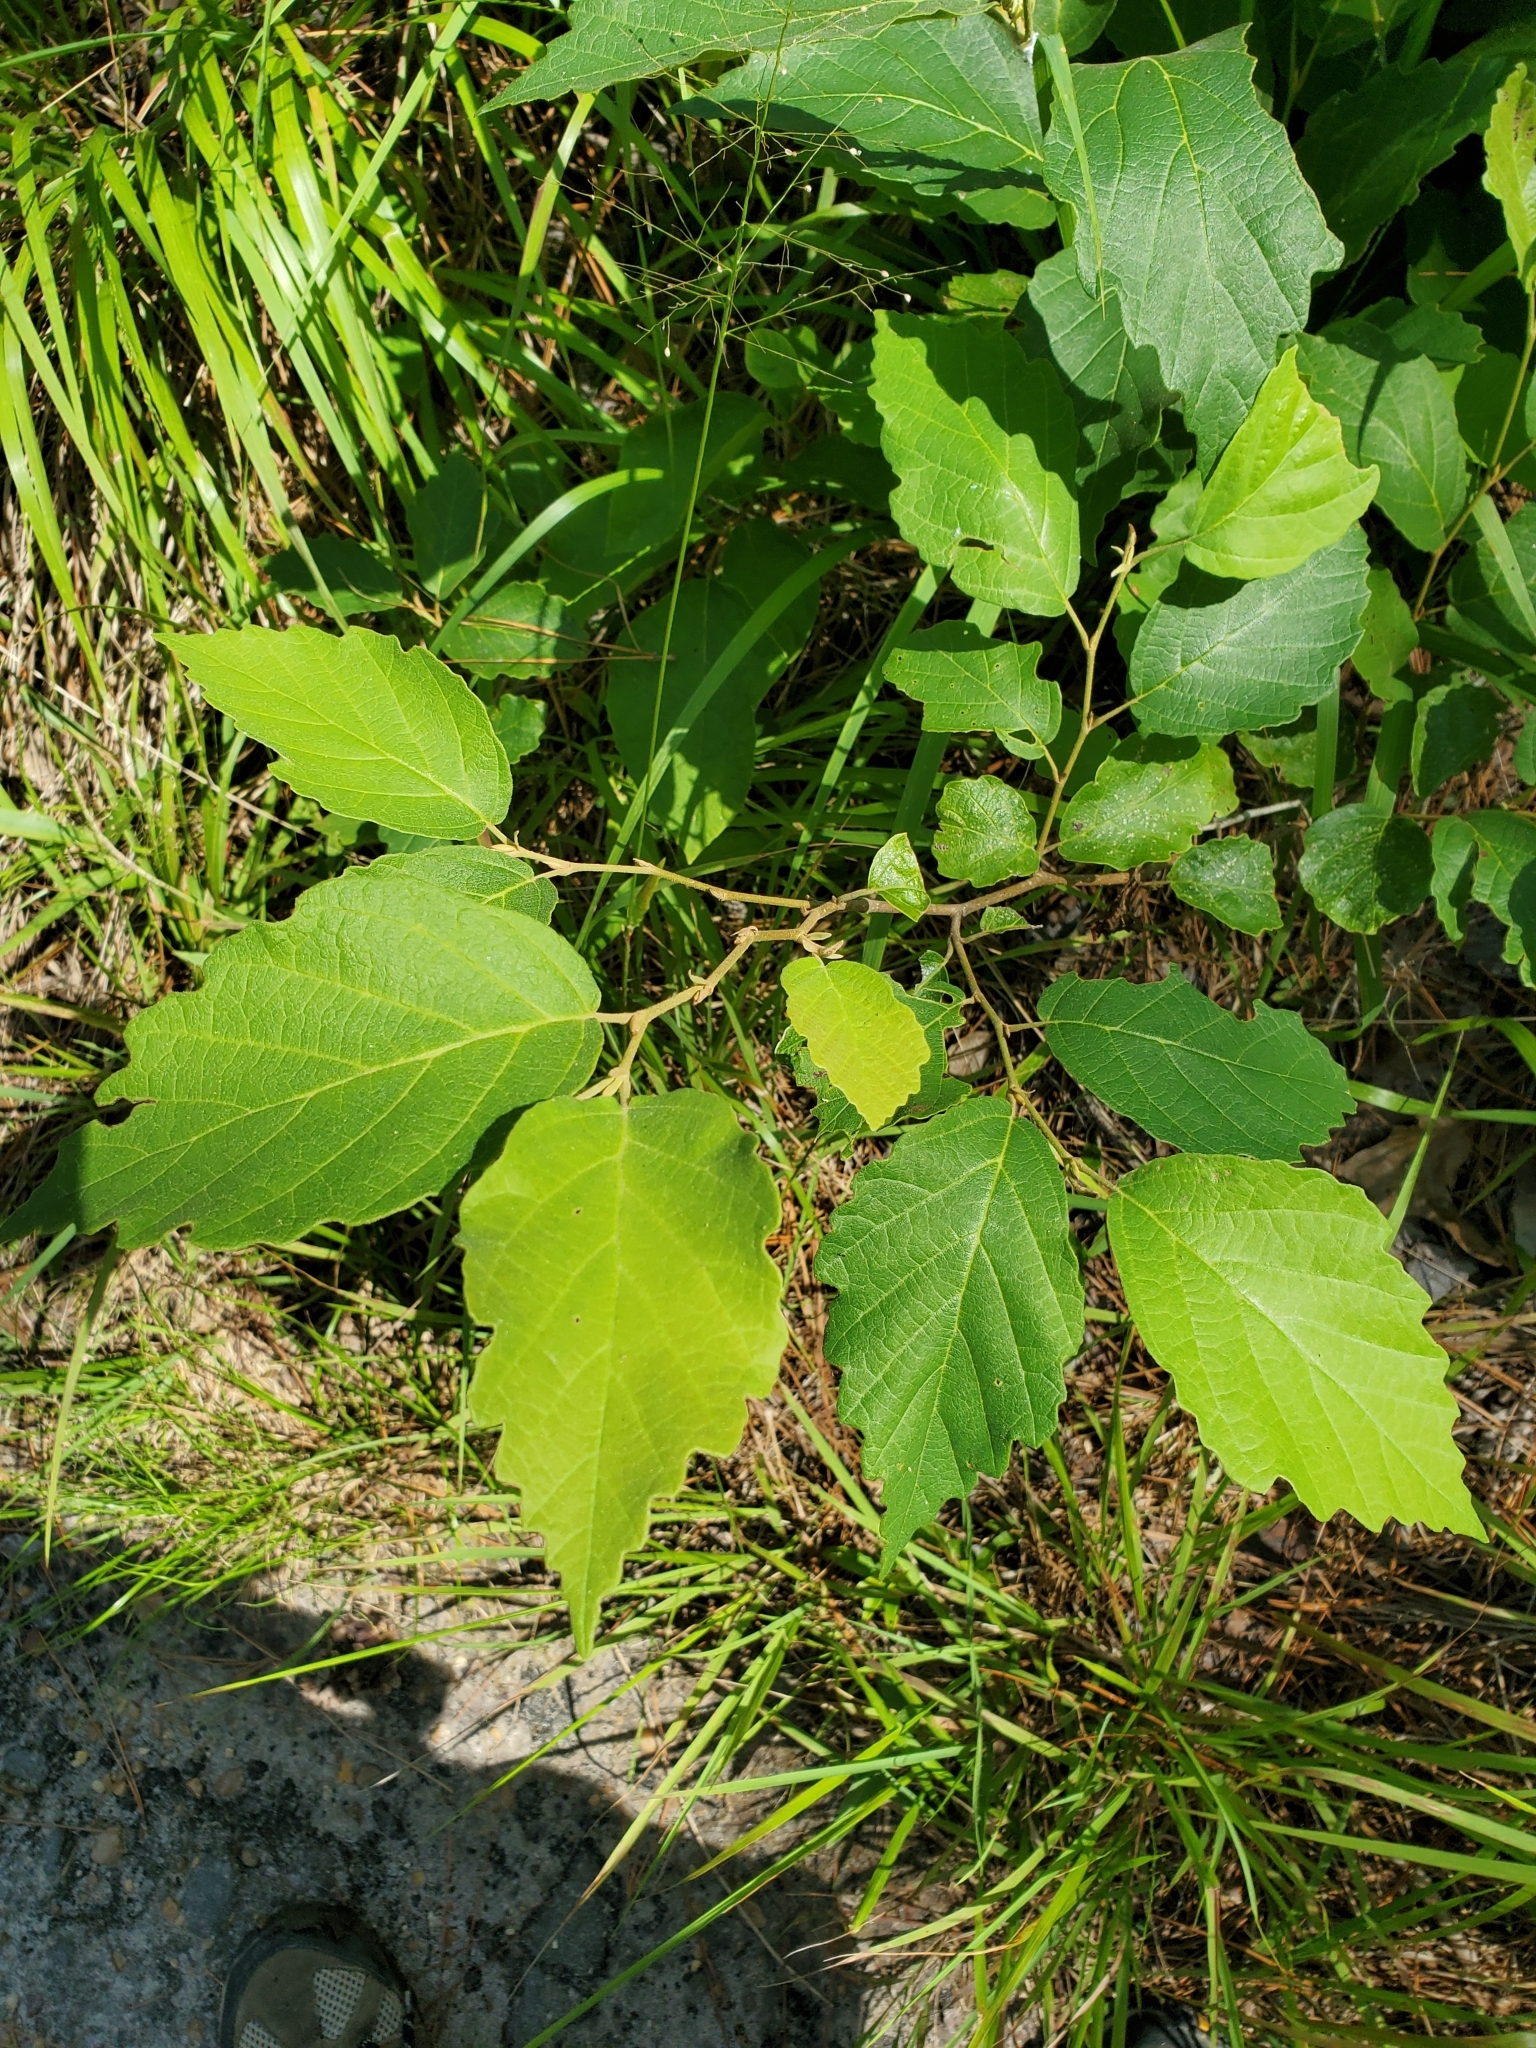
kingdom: Plantae
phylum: Tracheophyta
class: Magnoliopsida
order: Saxifragales
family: Hamamelidaceae
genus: Hamamelis
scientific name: Hamamelis virginiana
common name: Witch-hazel
